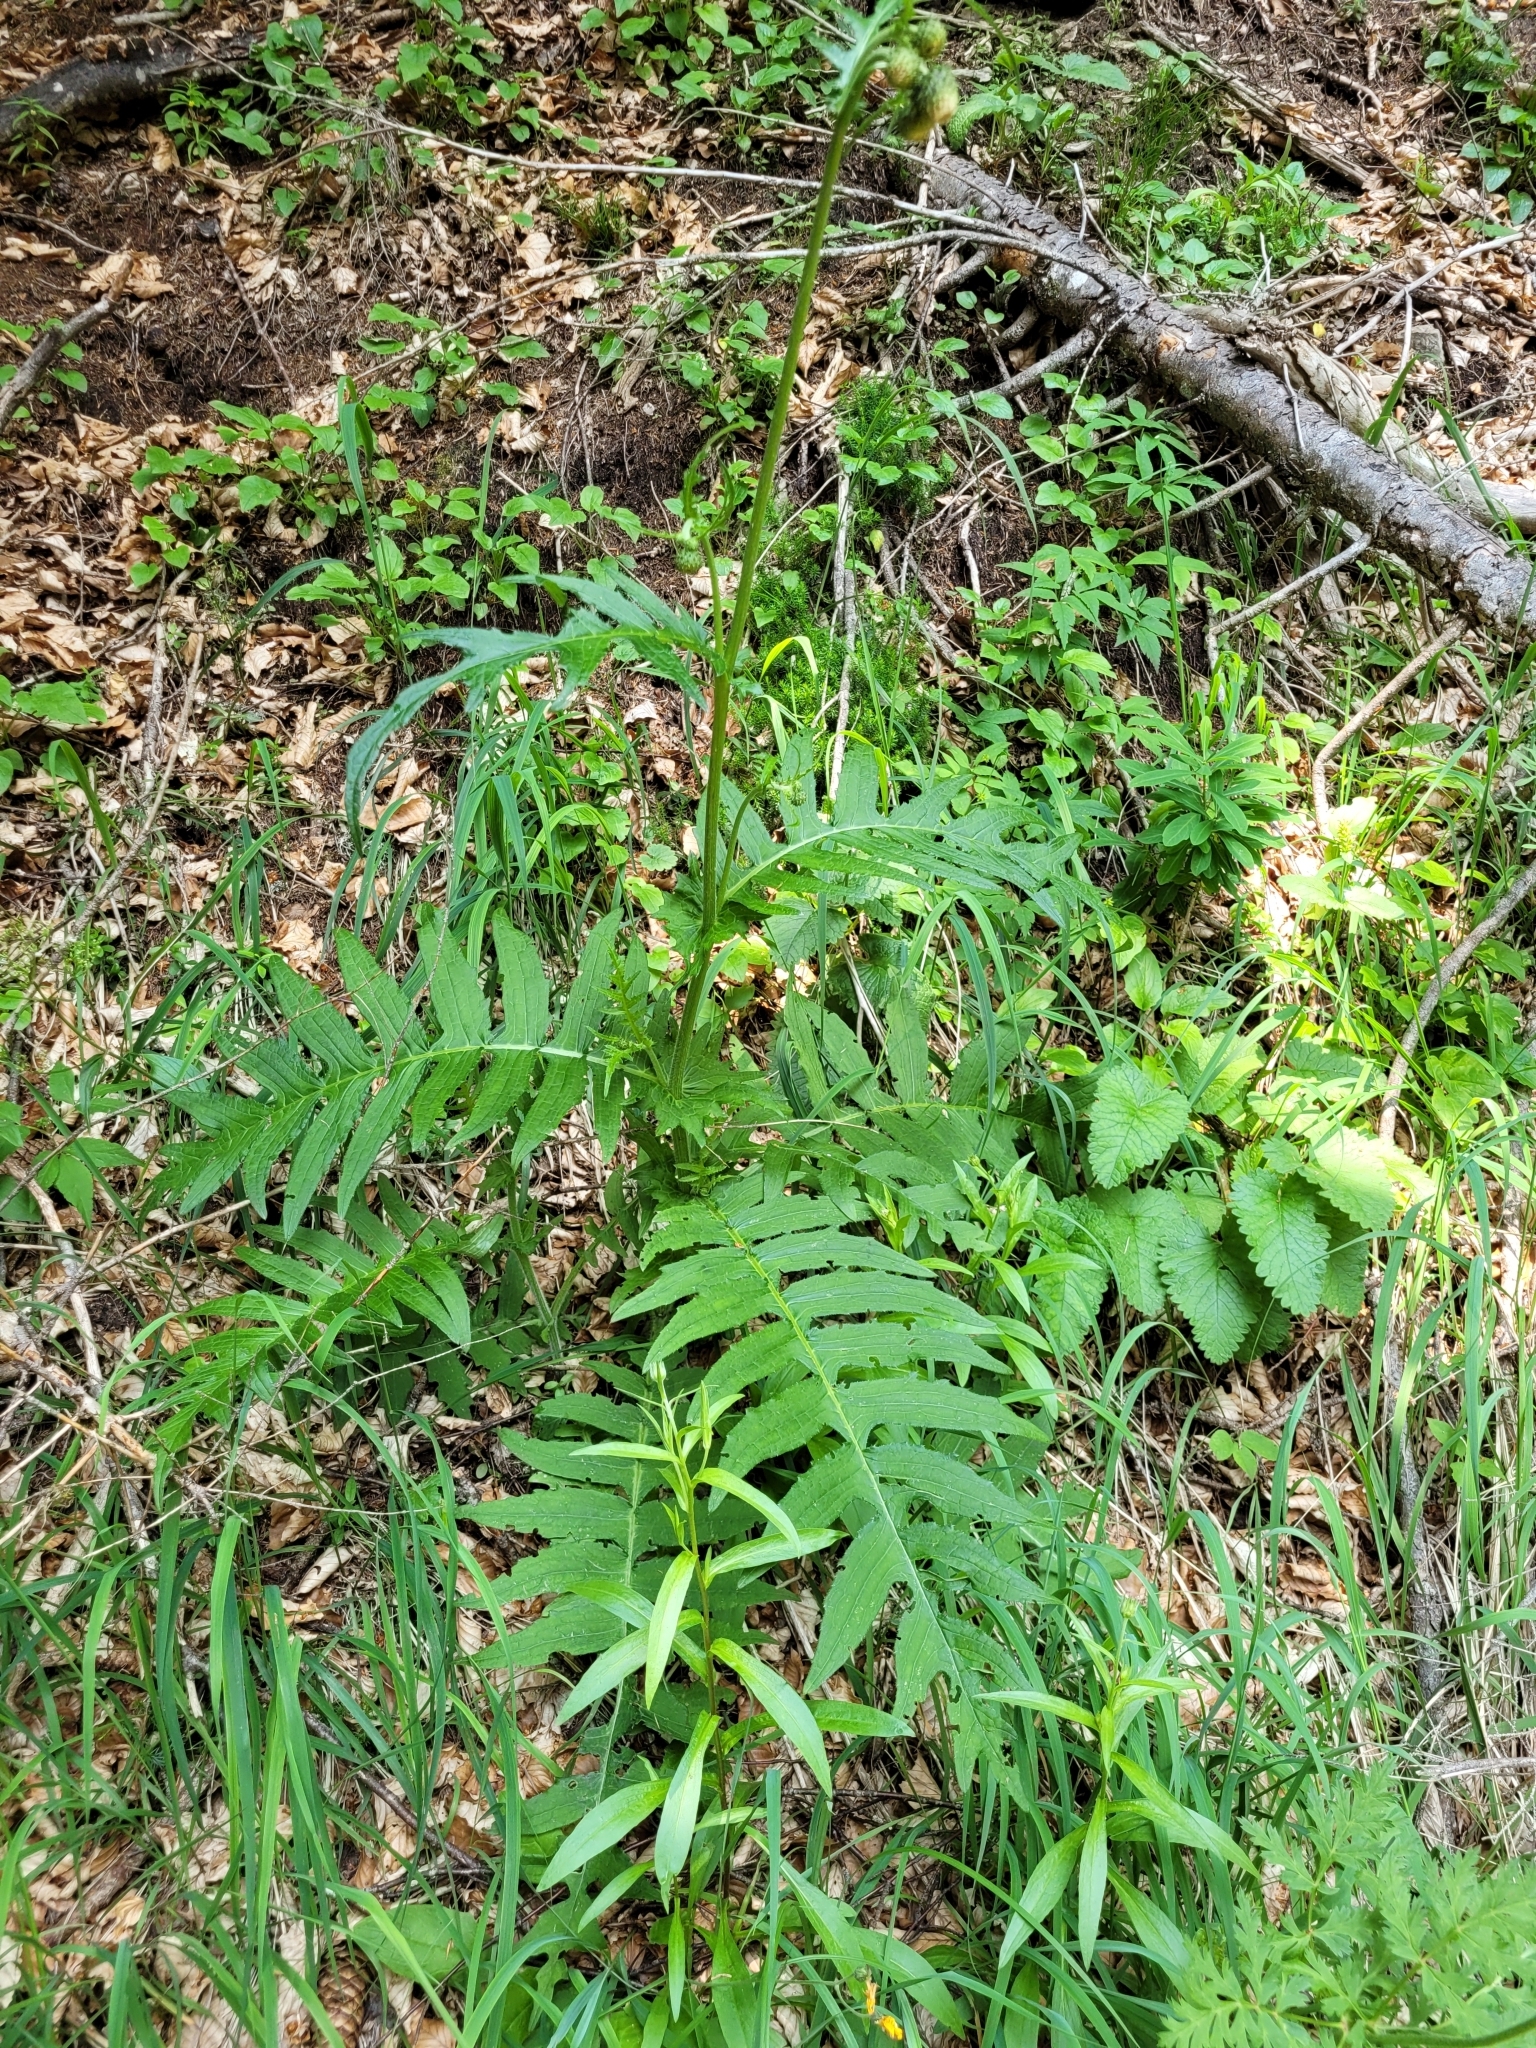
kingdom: Plantae
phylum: Tracheophyta
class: Magnoliopsida
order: Asterales
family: Asteraceae
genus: Cirsium
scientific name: Cirsium erisithales
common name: Yellow thistle
